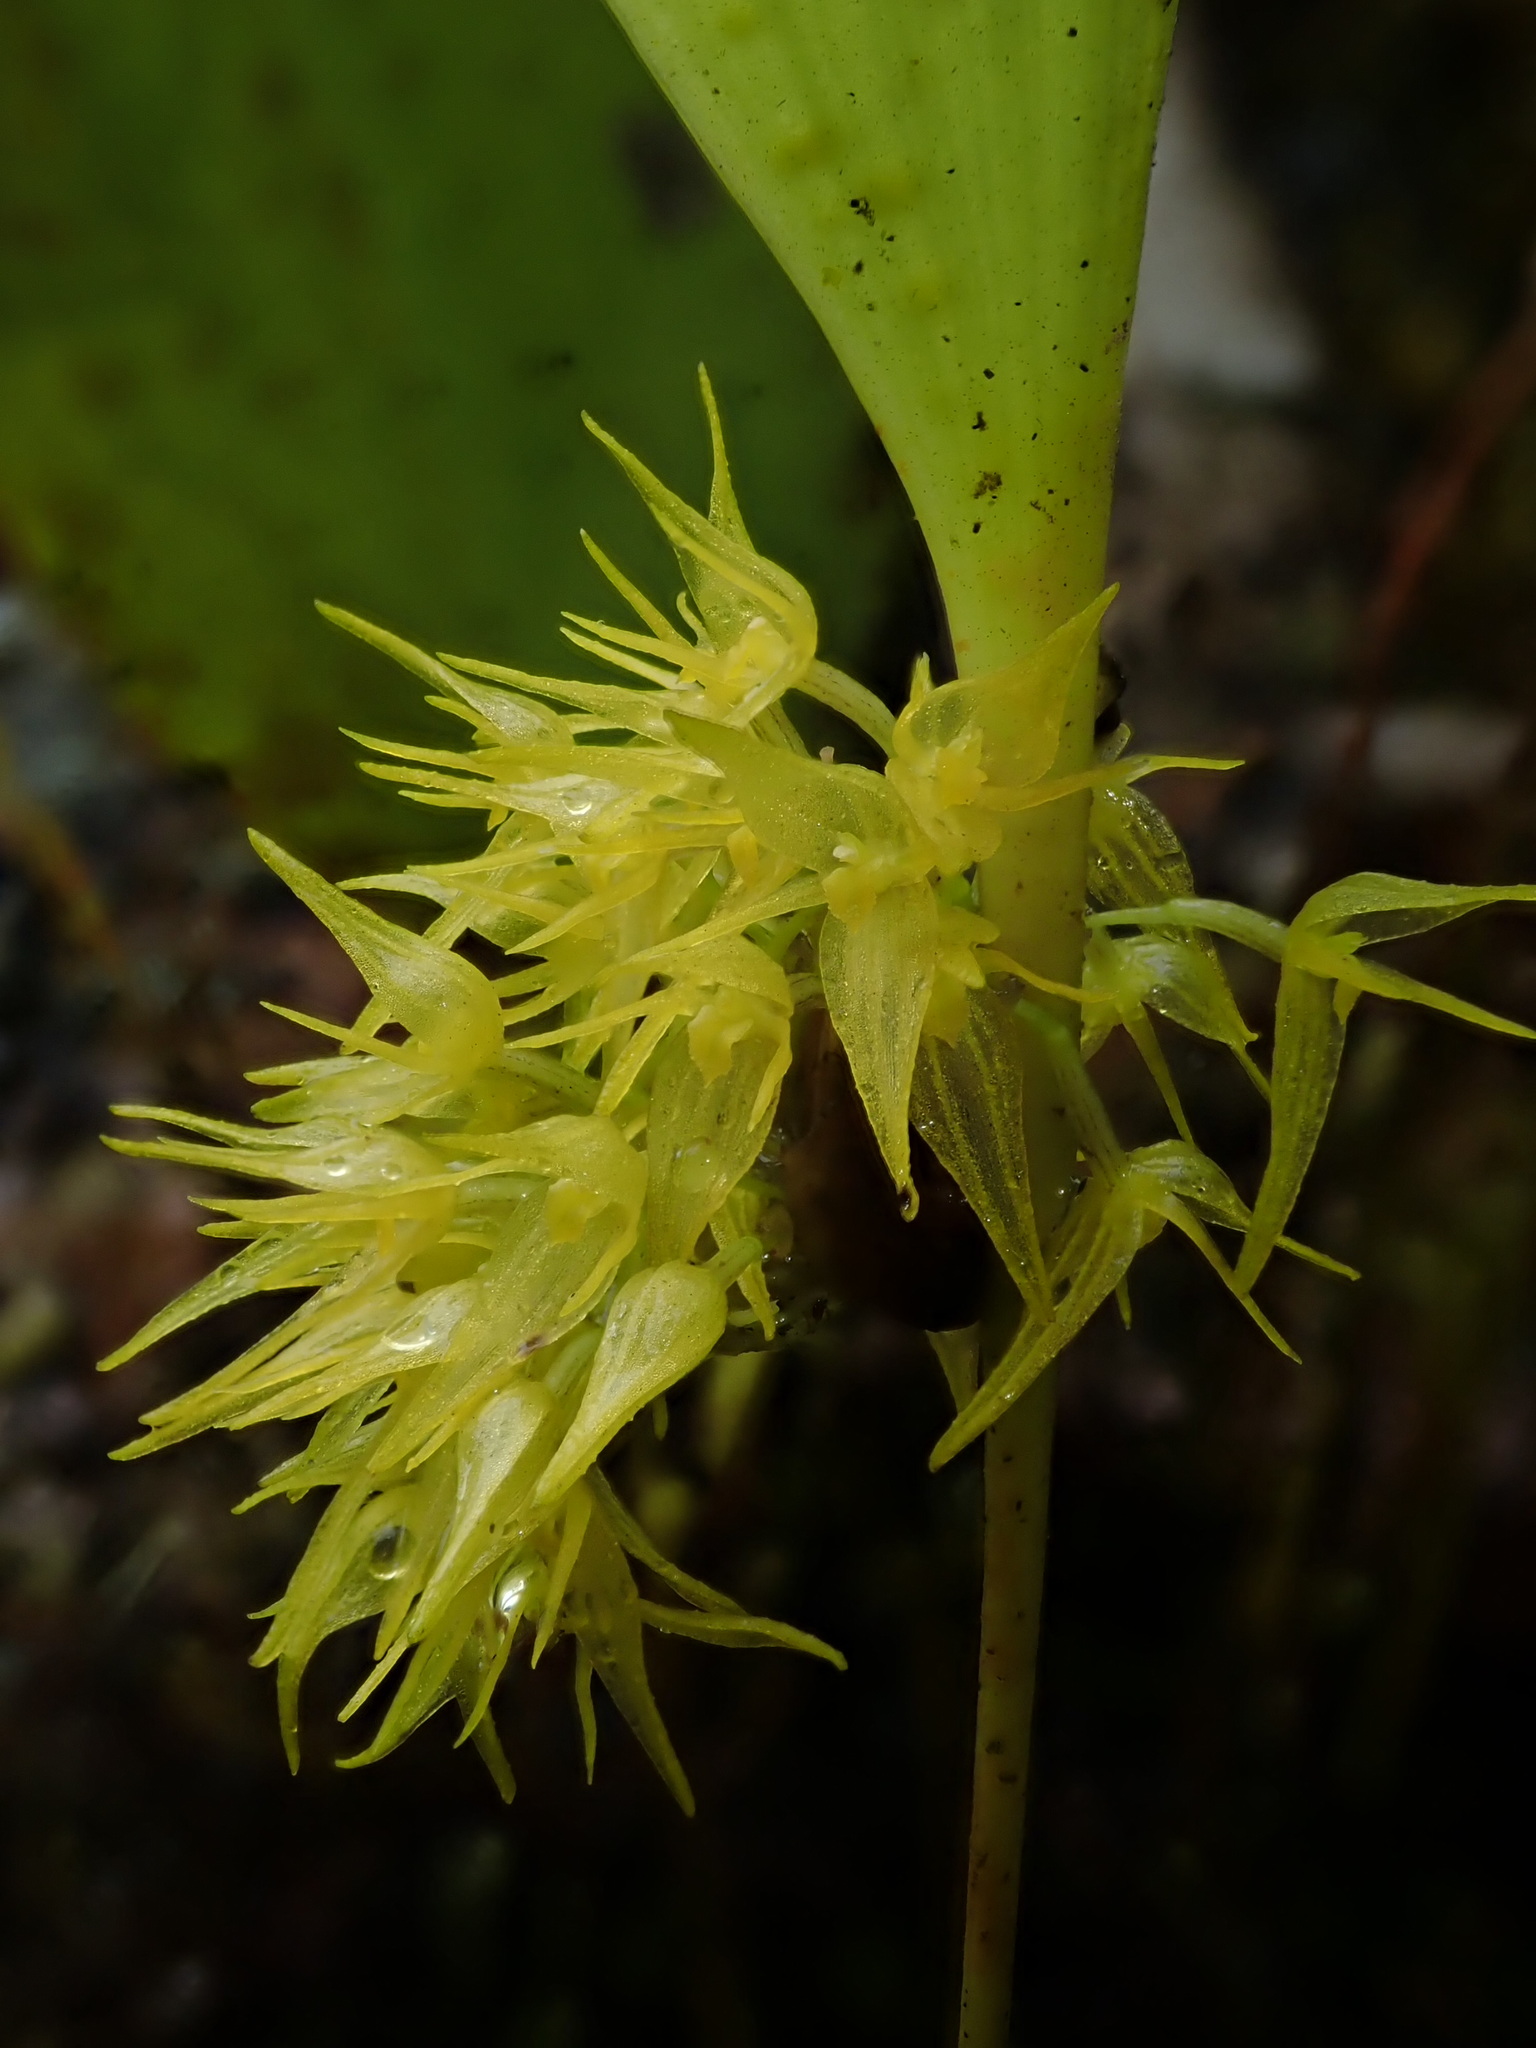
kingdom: Plantae
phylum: Tracheophyta
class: Liliopsida
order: Asparagales
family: Orchidaceae
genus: Pleurothallis
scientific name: Pleurothallis ruscifolia
